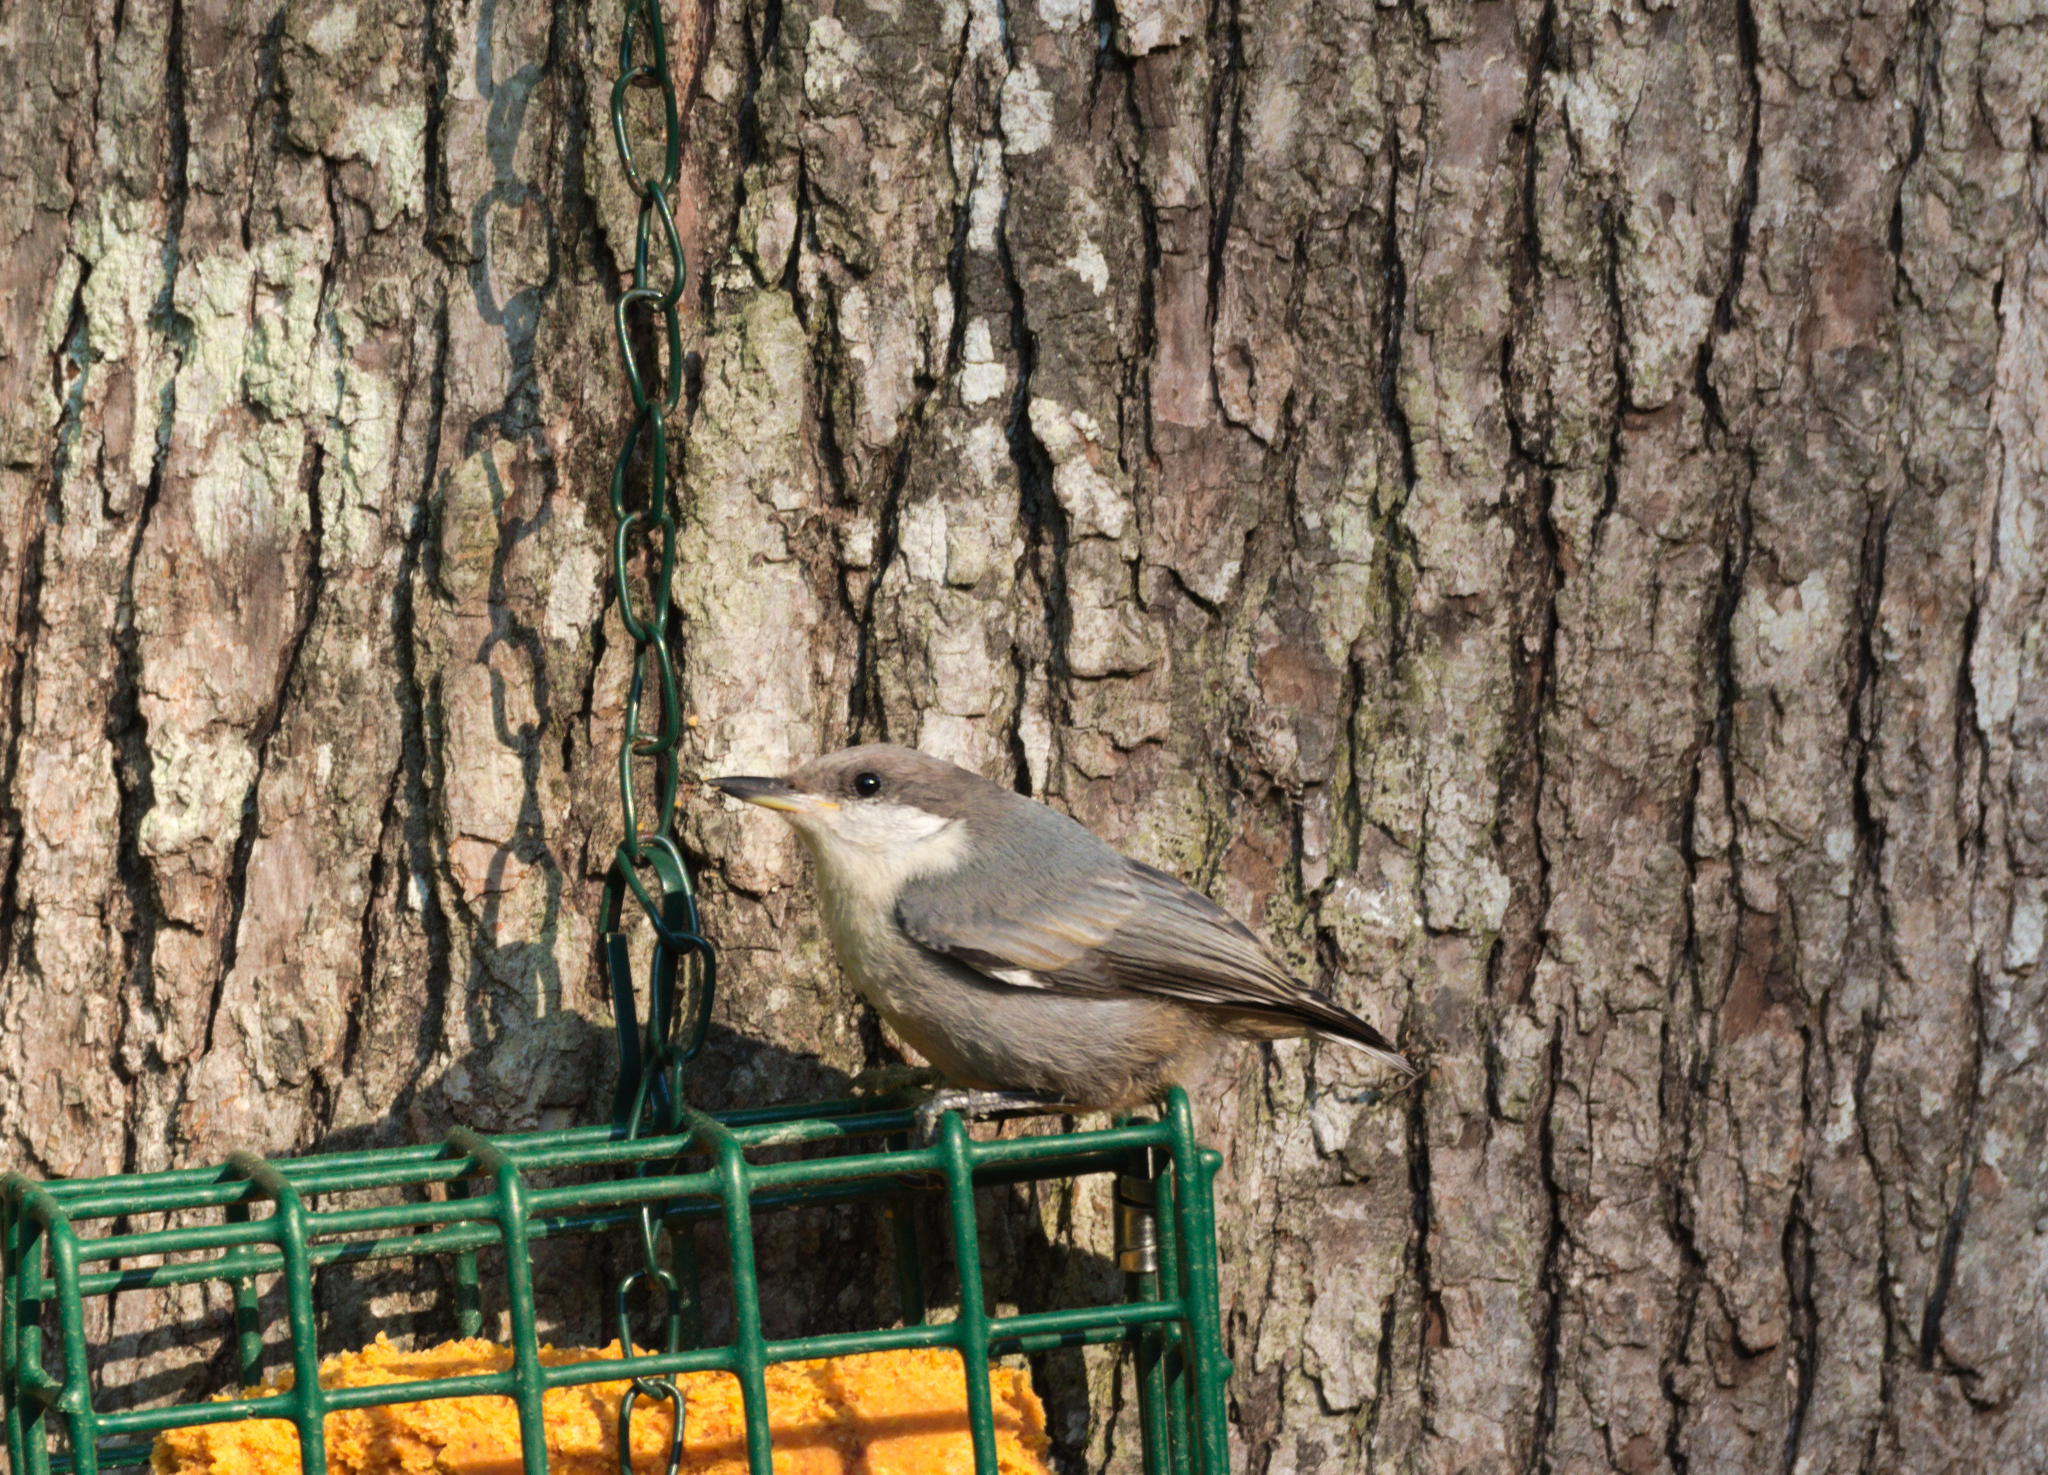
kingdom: Animalia
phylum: Chordata
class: Aves
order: Passeriformes
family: Sittidae
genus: Sitta
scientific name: Sitta pusilla
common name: Brown-headed nuthatch
